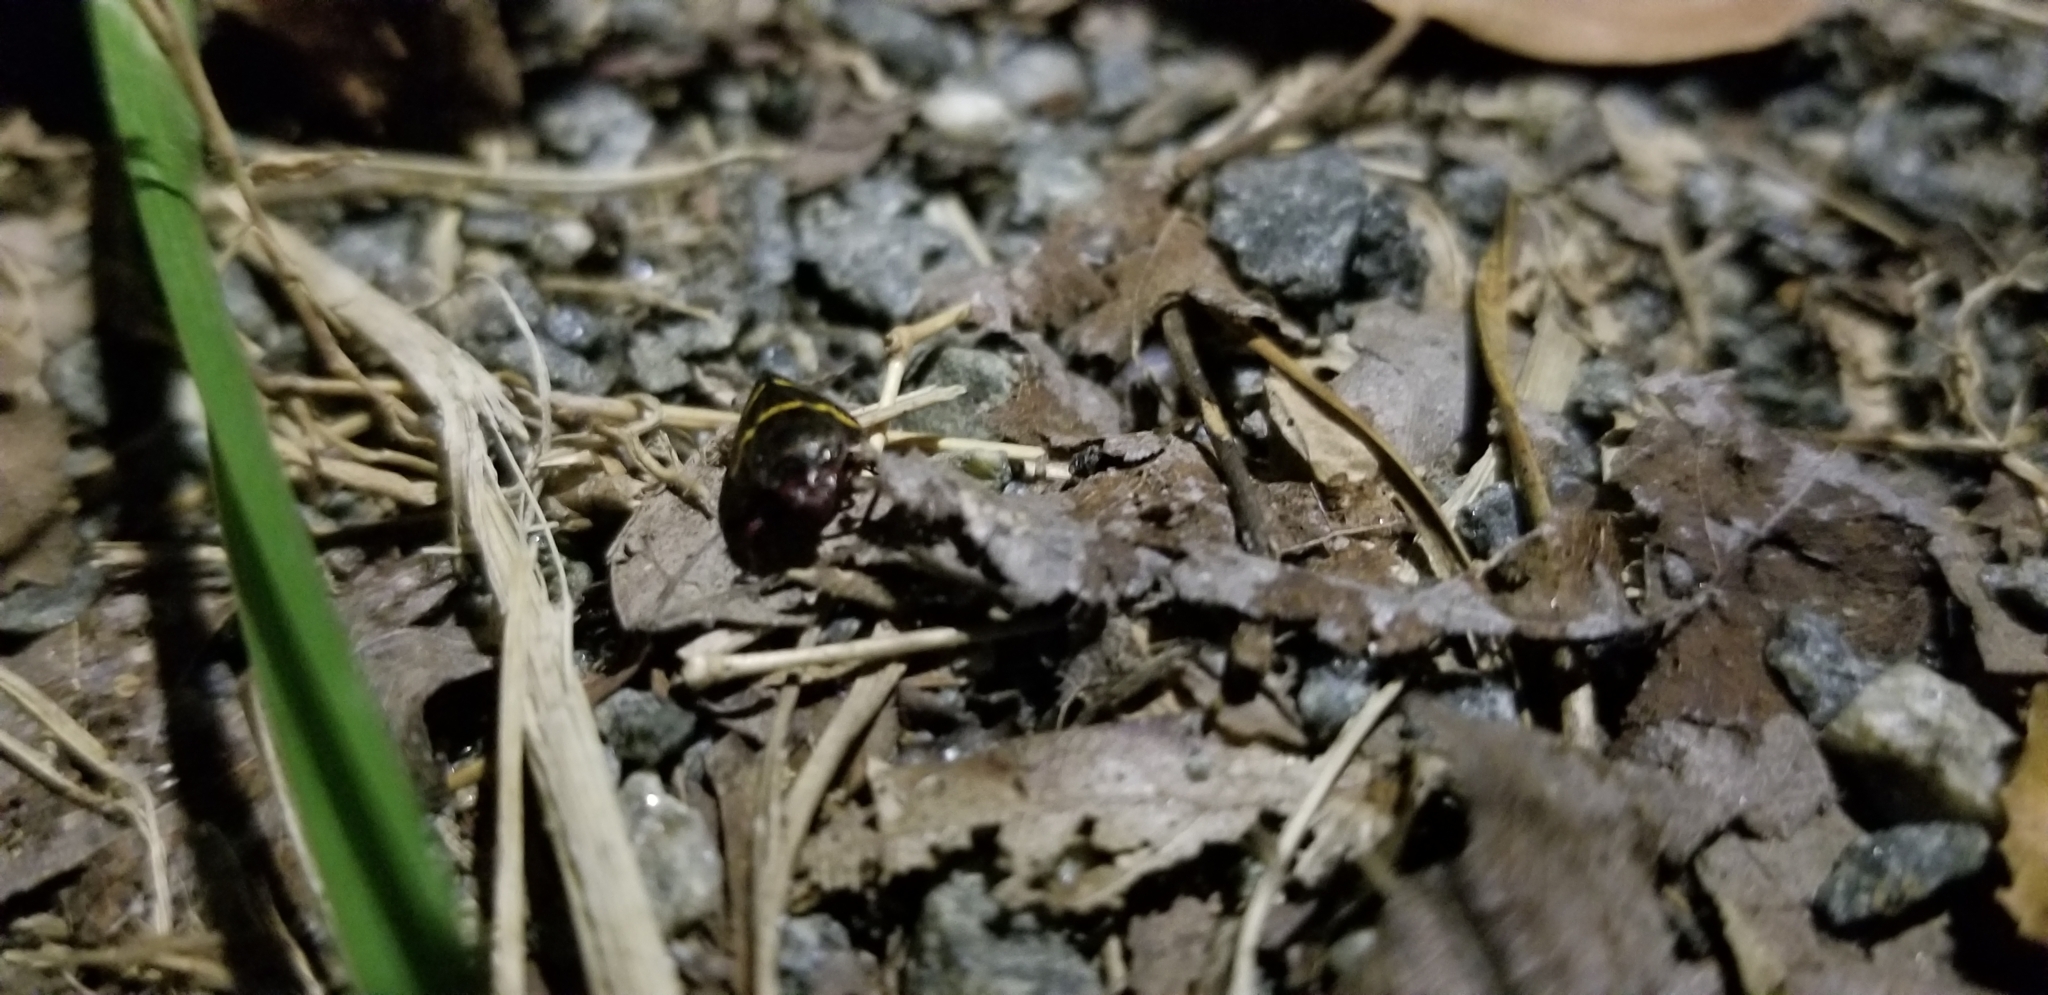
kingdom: Animalia
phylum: Arthropoda
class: Insecta
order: Hemiptera
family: Cercopidae
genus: Prosapia
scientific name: Prosapia bicincta
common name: Twolined spittlebug
